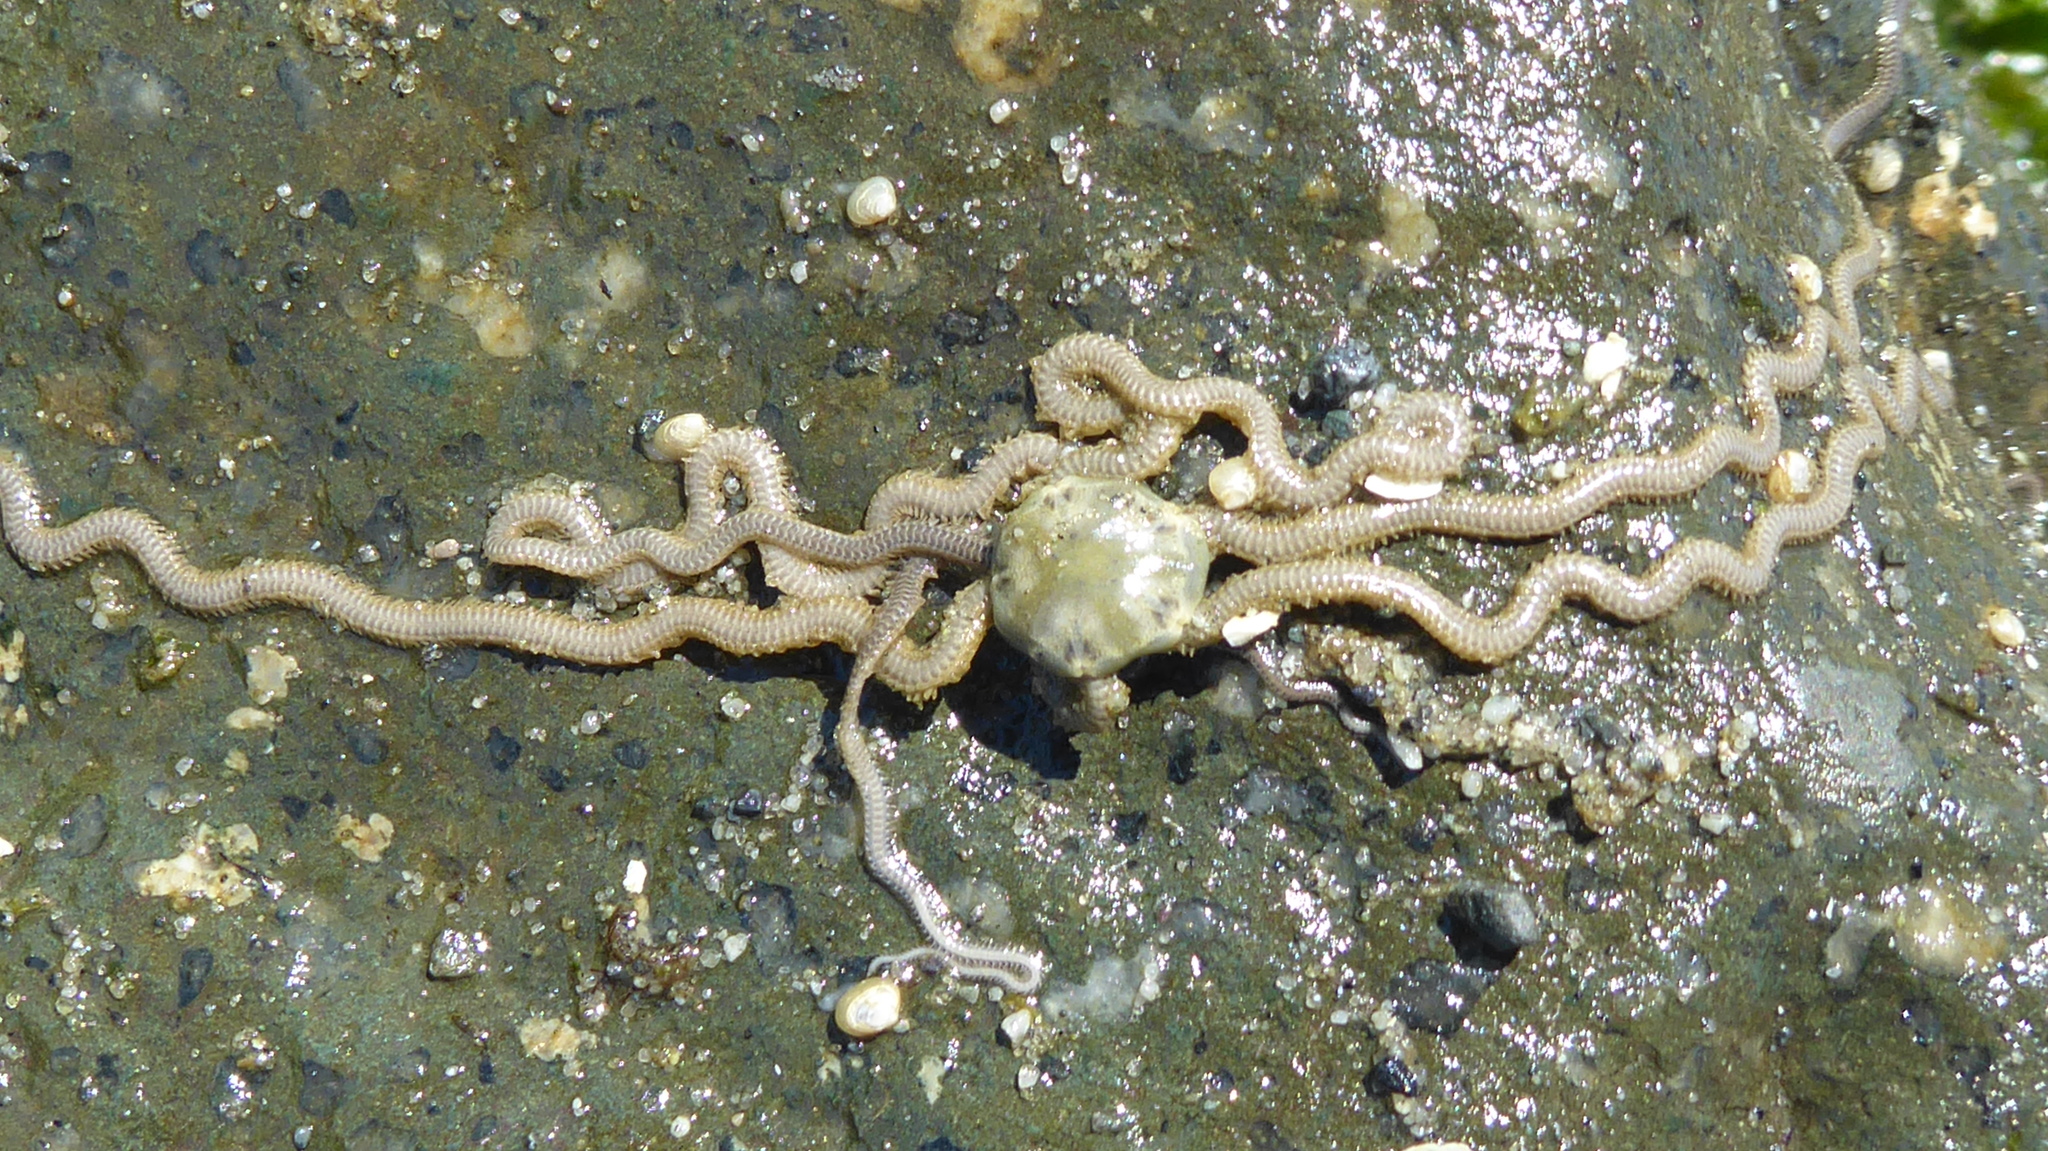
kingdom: Animalia
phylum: Echinodermata
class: Ophiuroidea
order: Amphilepidida
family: Amphiuridae
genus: Amphiodia
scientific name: Amphiodia occidentalis
